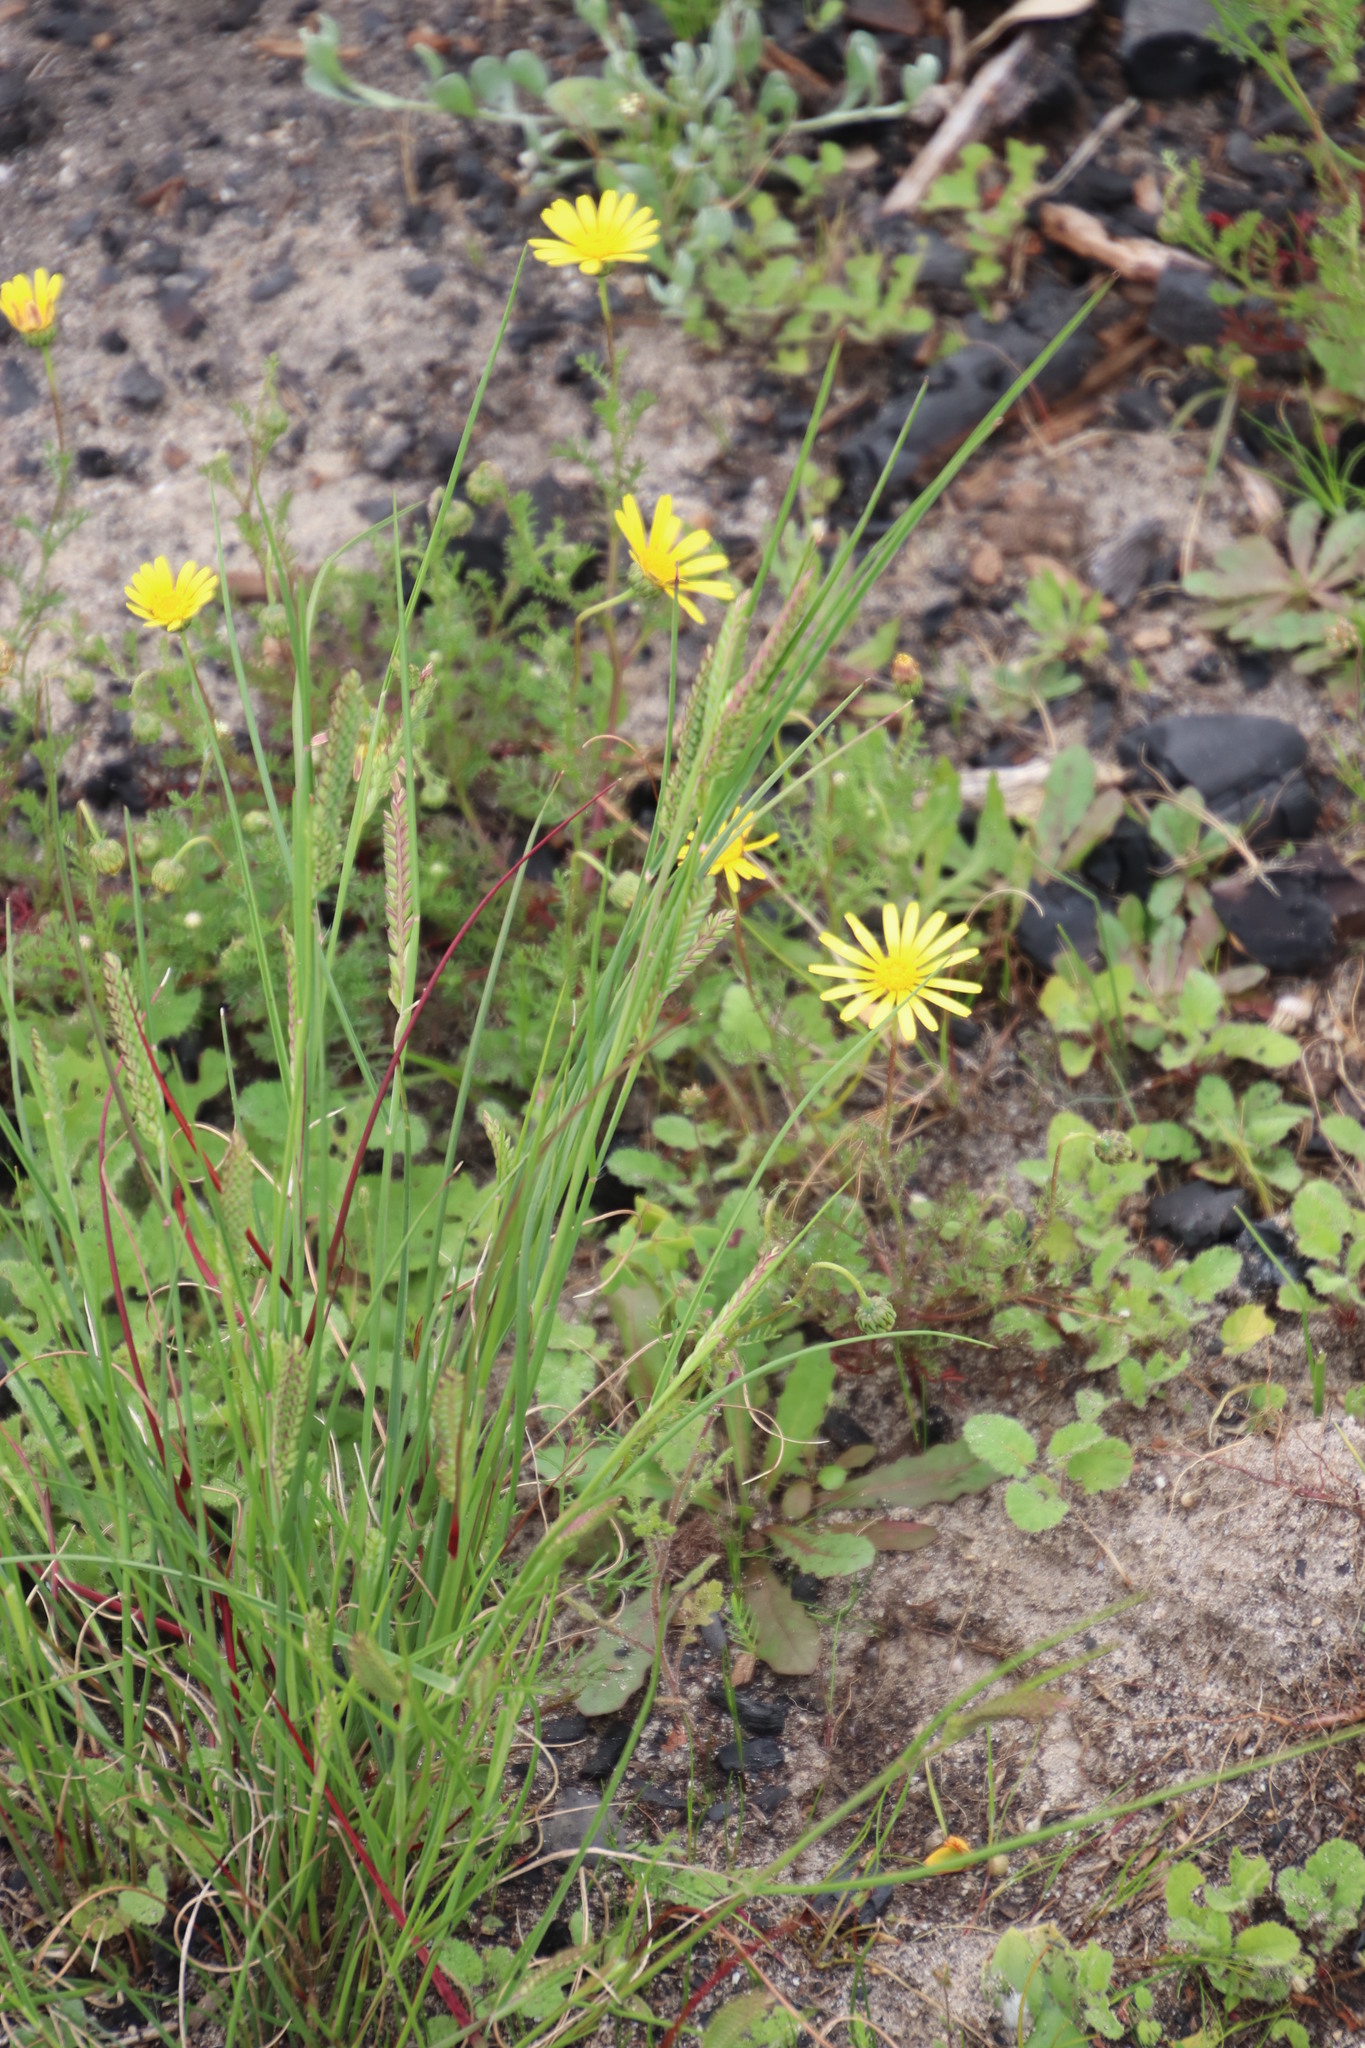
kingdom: Plantae
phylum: Tracheophyta
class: Liliopsida
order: Poales
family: Poaceae
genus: Tribolium
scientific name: Tribolium uniolae
